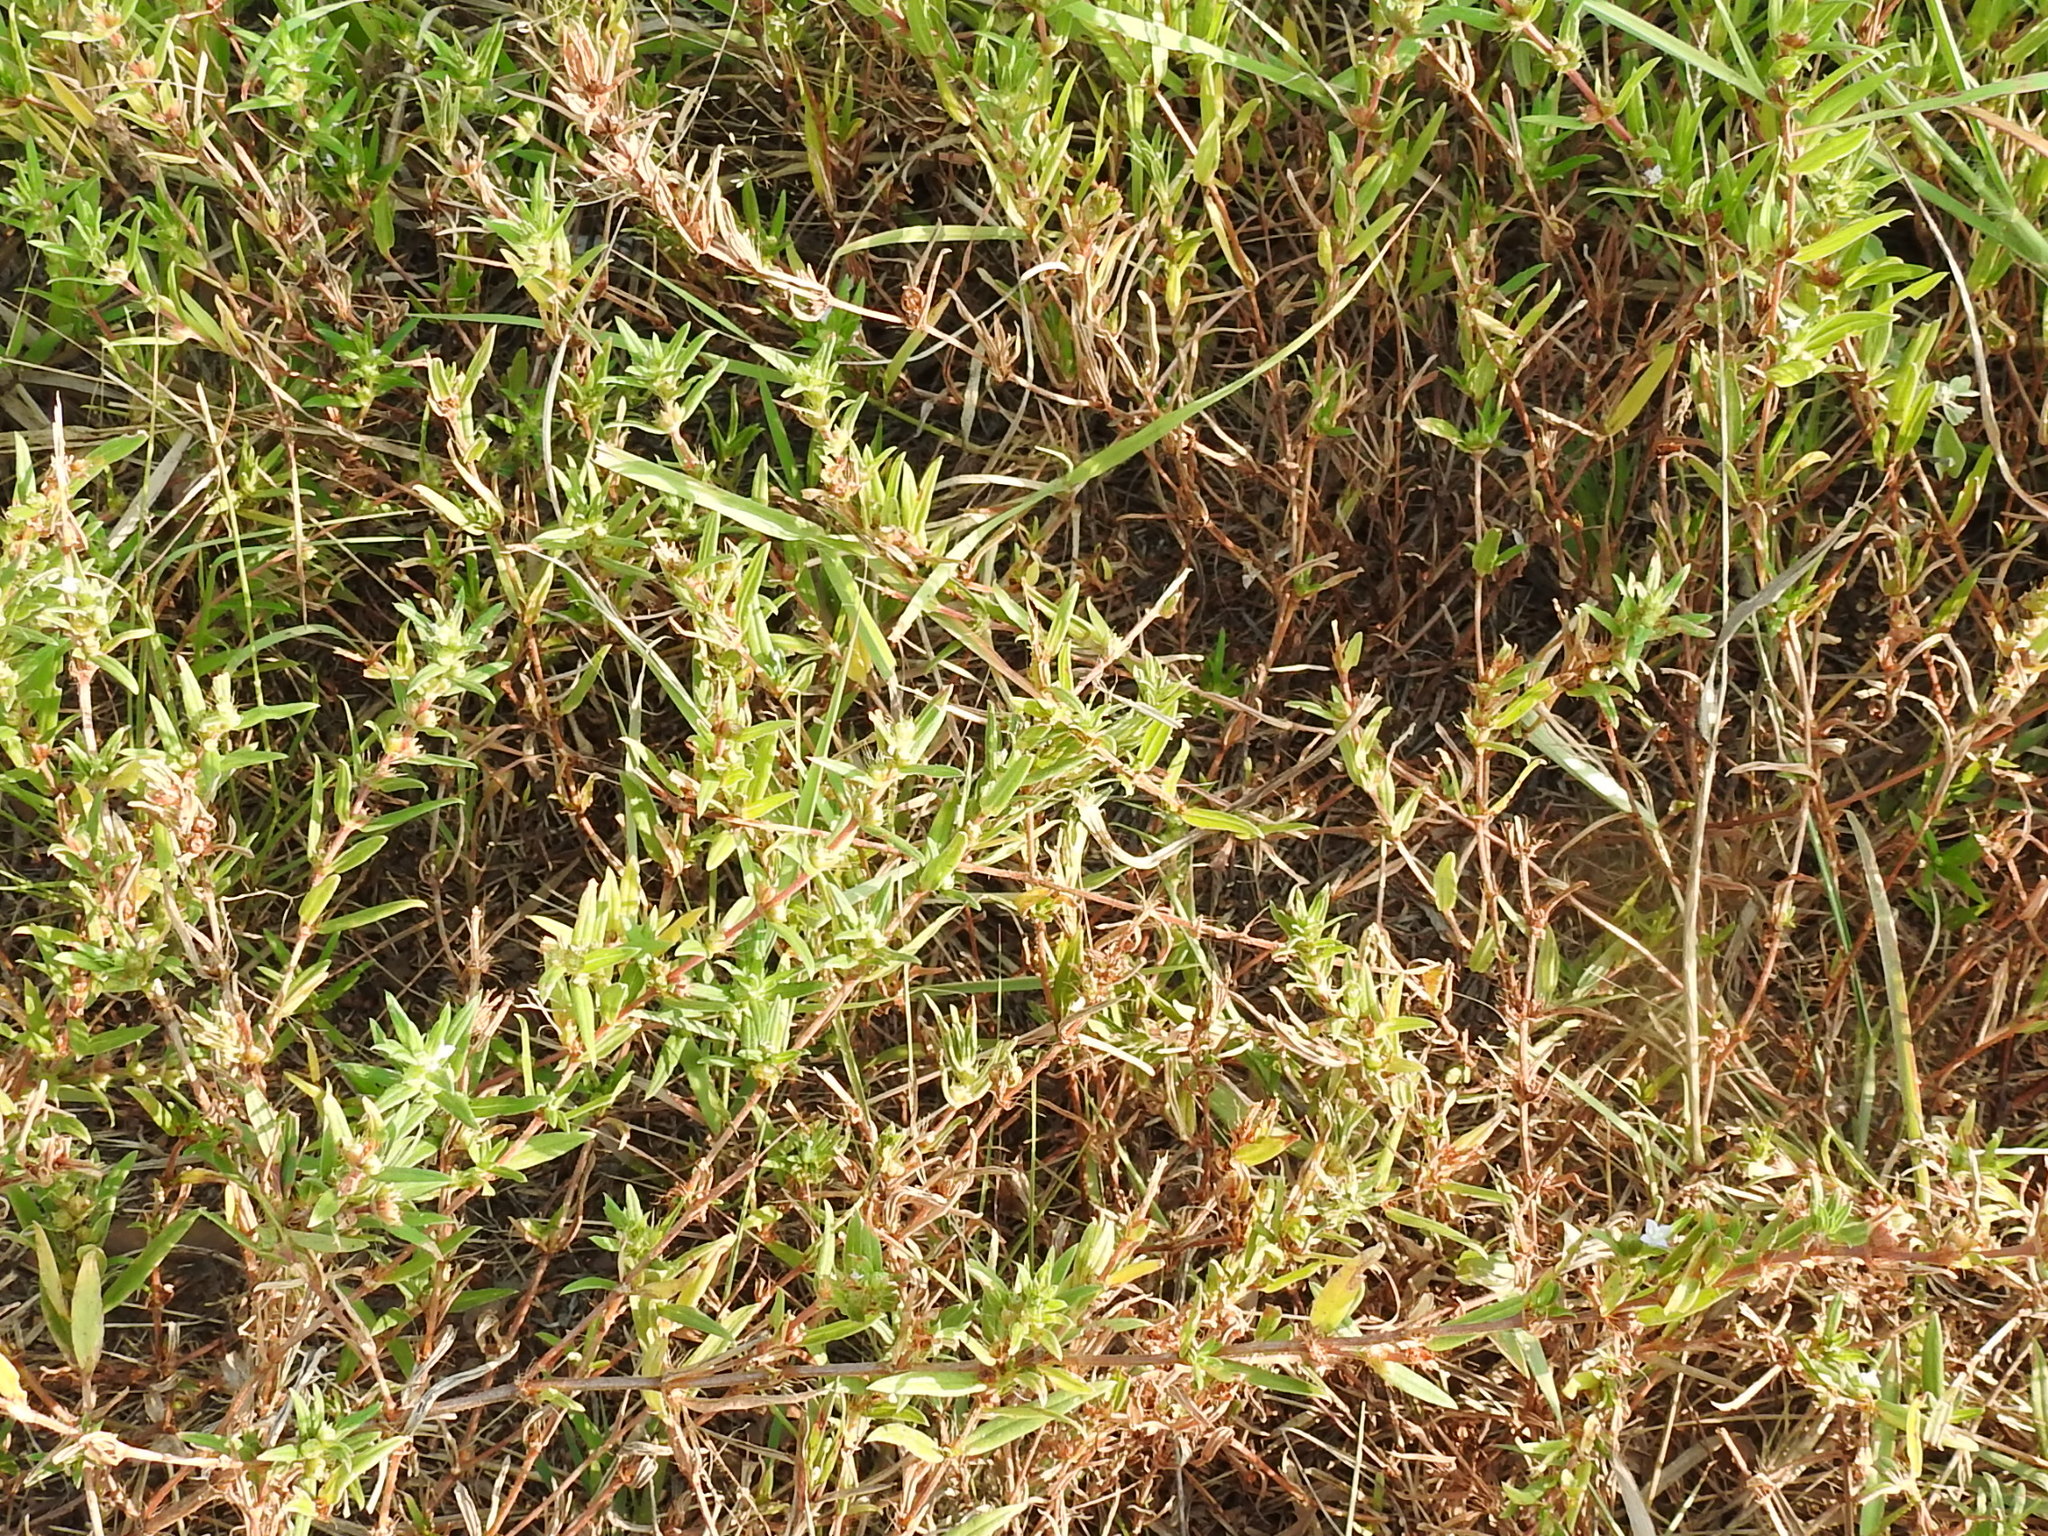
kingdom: Plantae
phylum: Tracheophyta
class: Magnoliopsida
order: Gentianales
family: Rubiaceae
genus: Hexasepalum
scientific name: Hexasepalum teres
